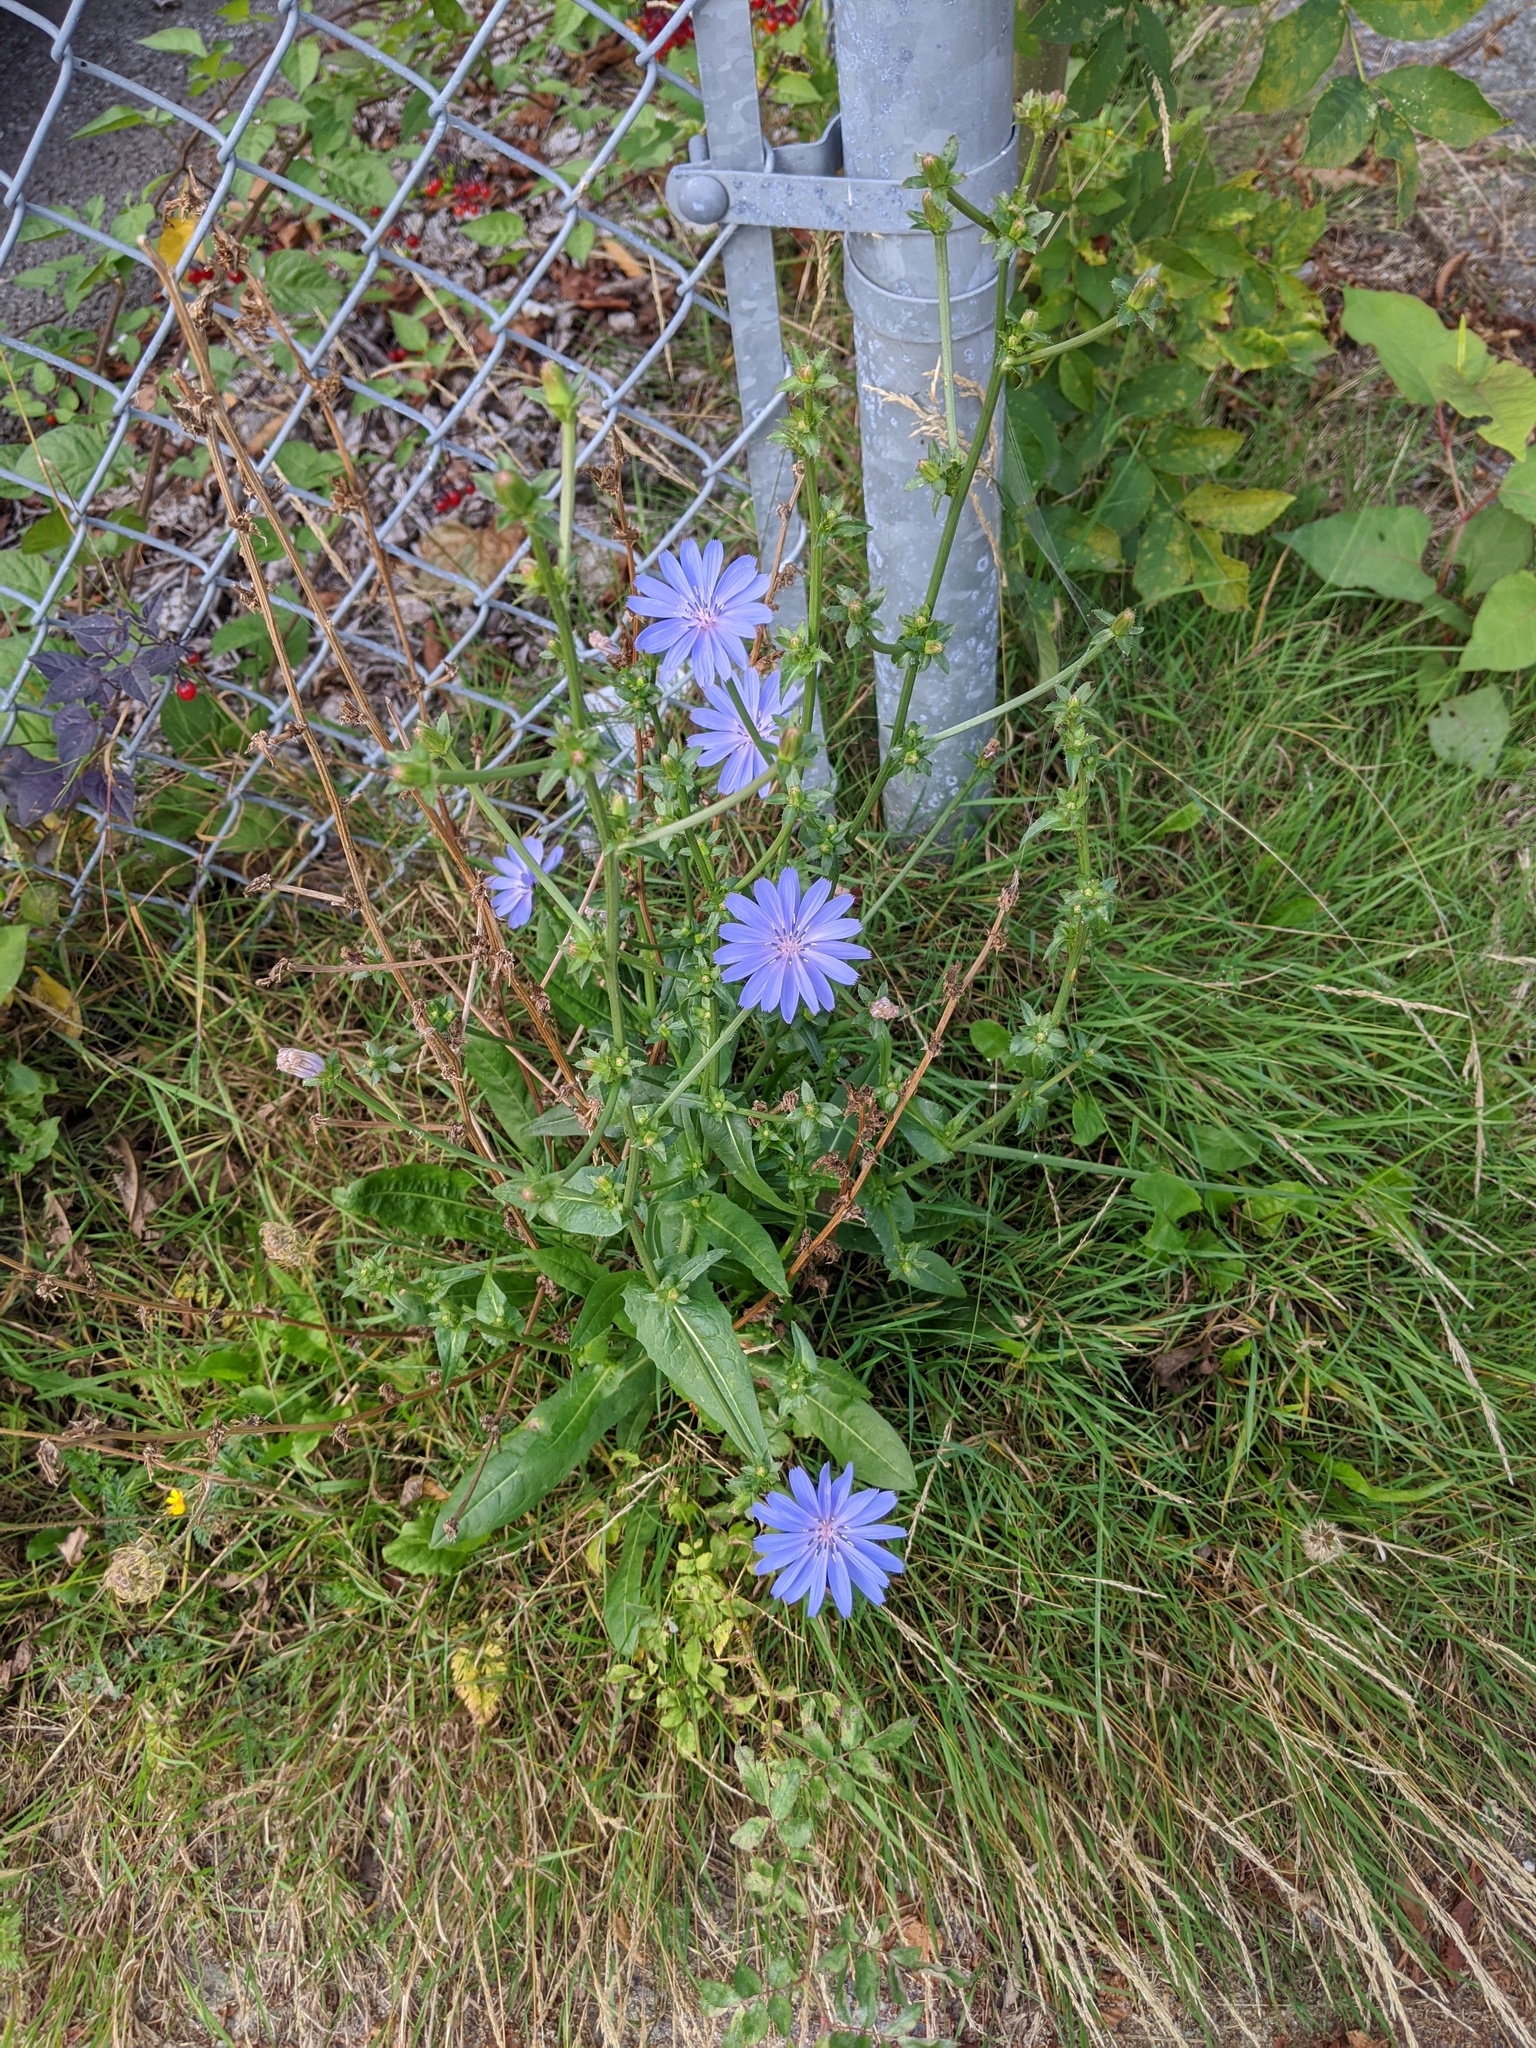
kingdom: Plantae
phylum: Tracheophyta
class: Magnoliopsida
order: Asterales
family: Asteraceae
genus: Cichorium
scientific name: Cichorium intybus
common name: Chicory
